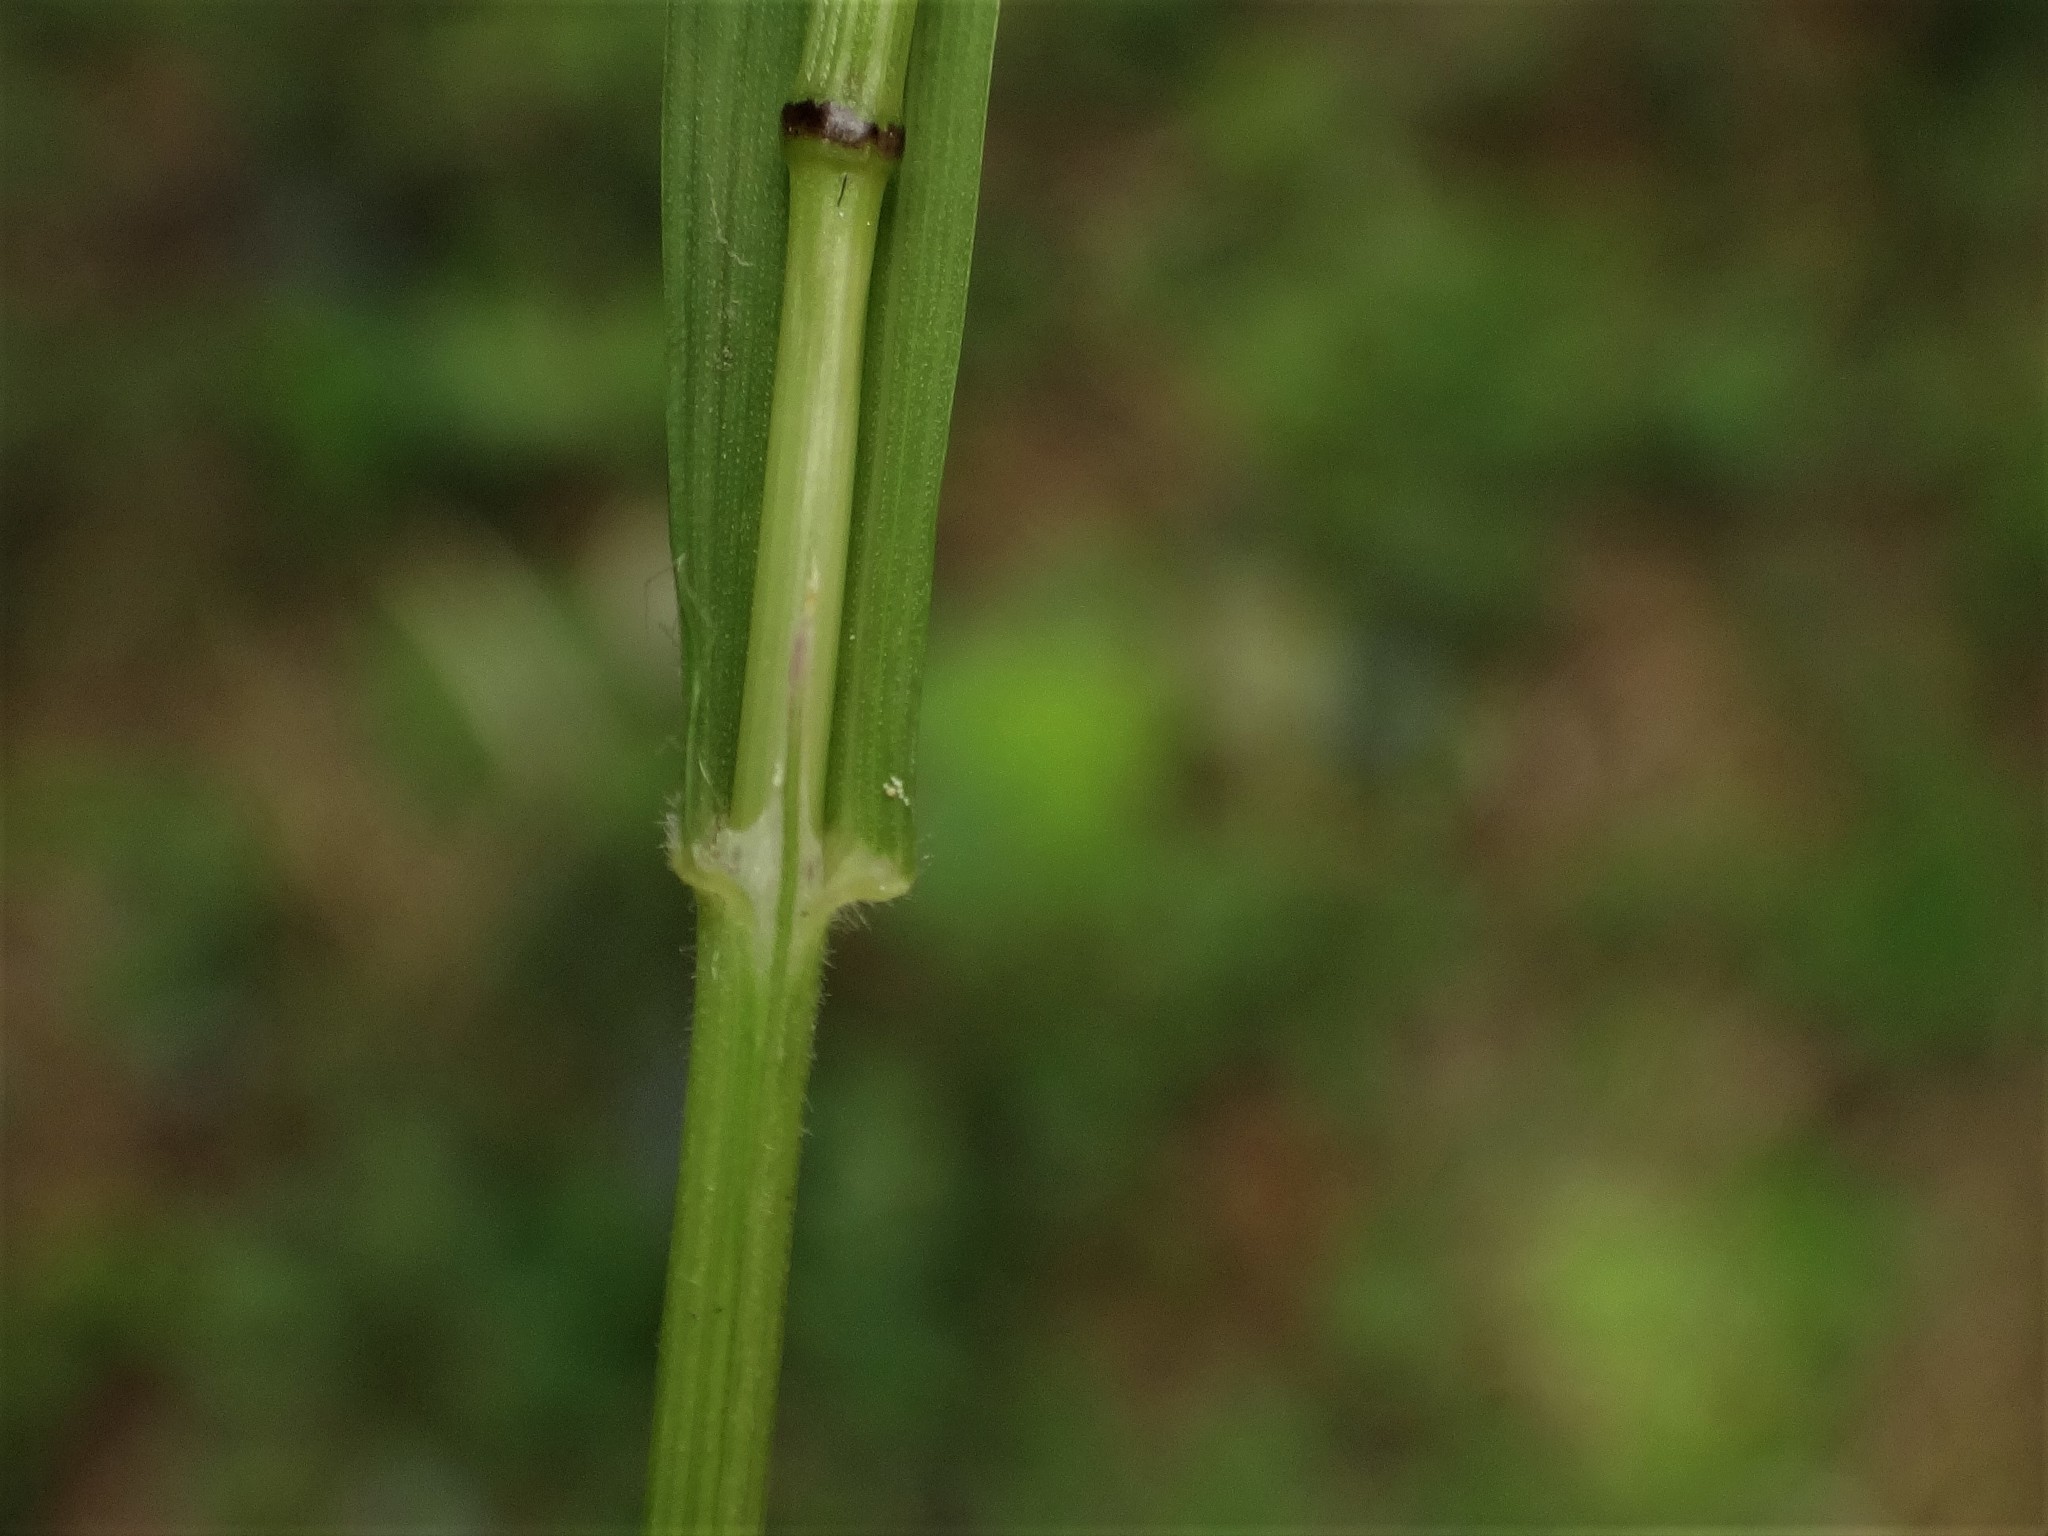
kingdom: Plantae
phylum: Tracheophyta
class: Liliopsida
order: Poales
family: Poaceae
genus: Melica
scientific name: Melica uniflora
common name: Wood melick
